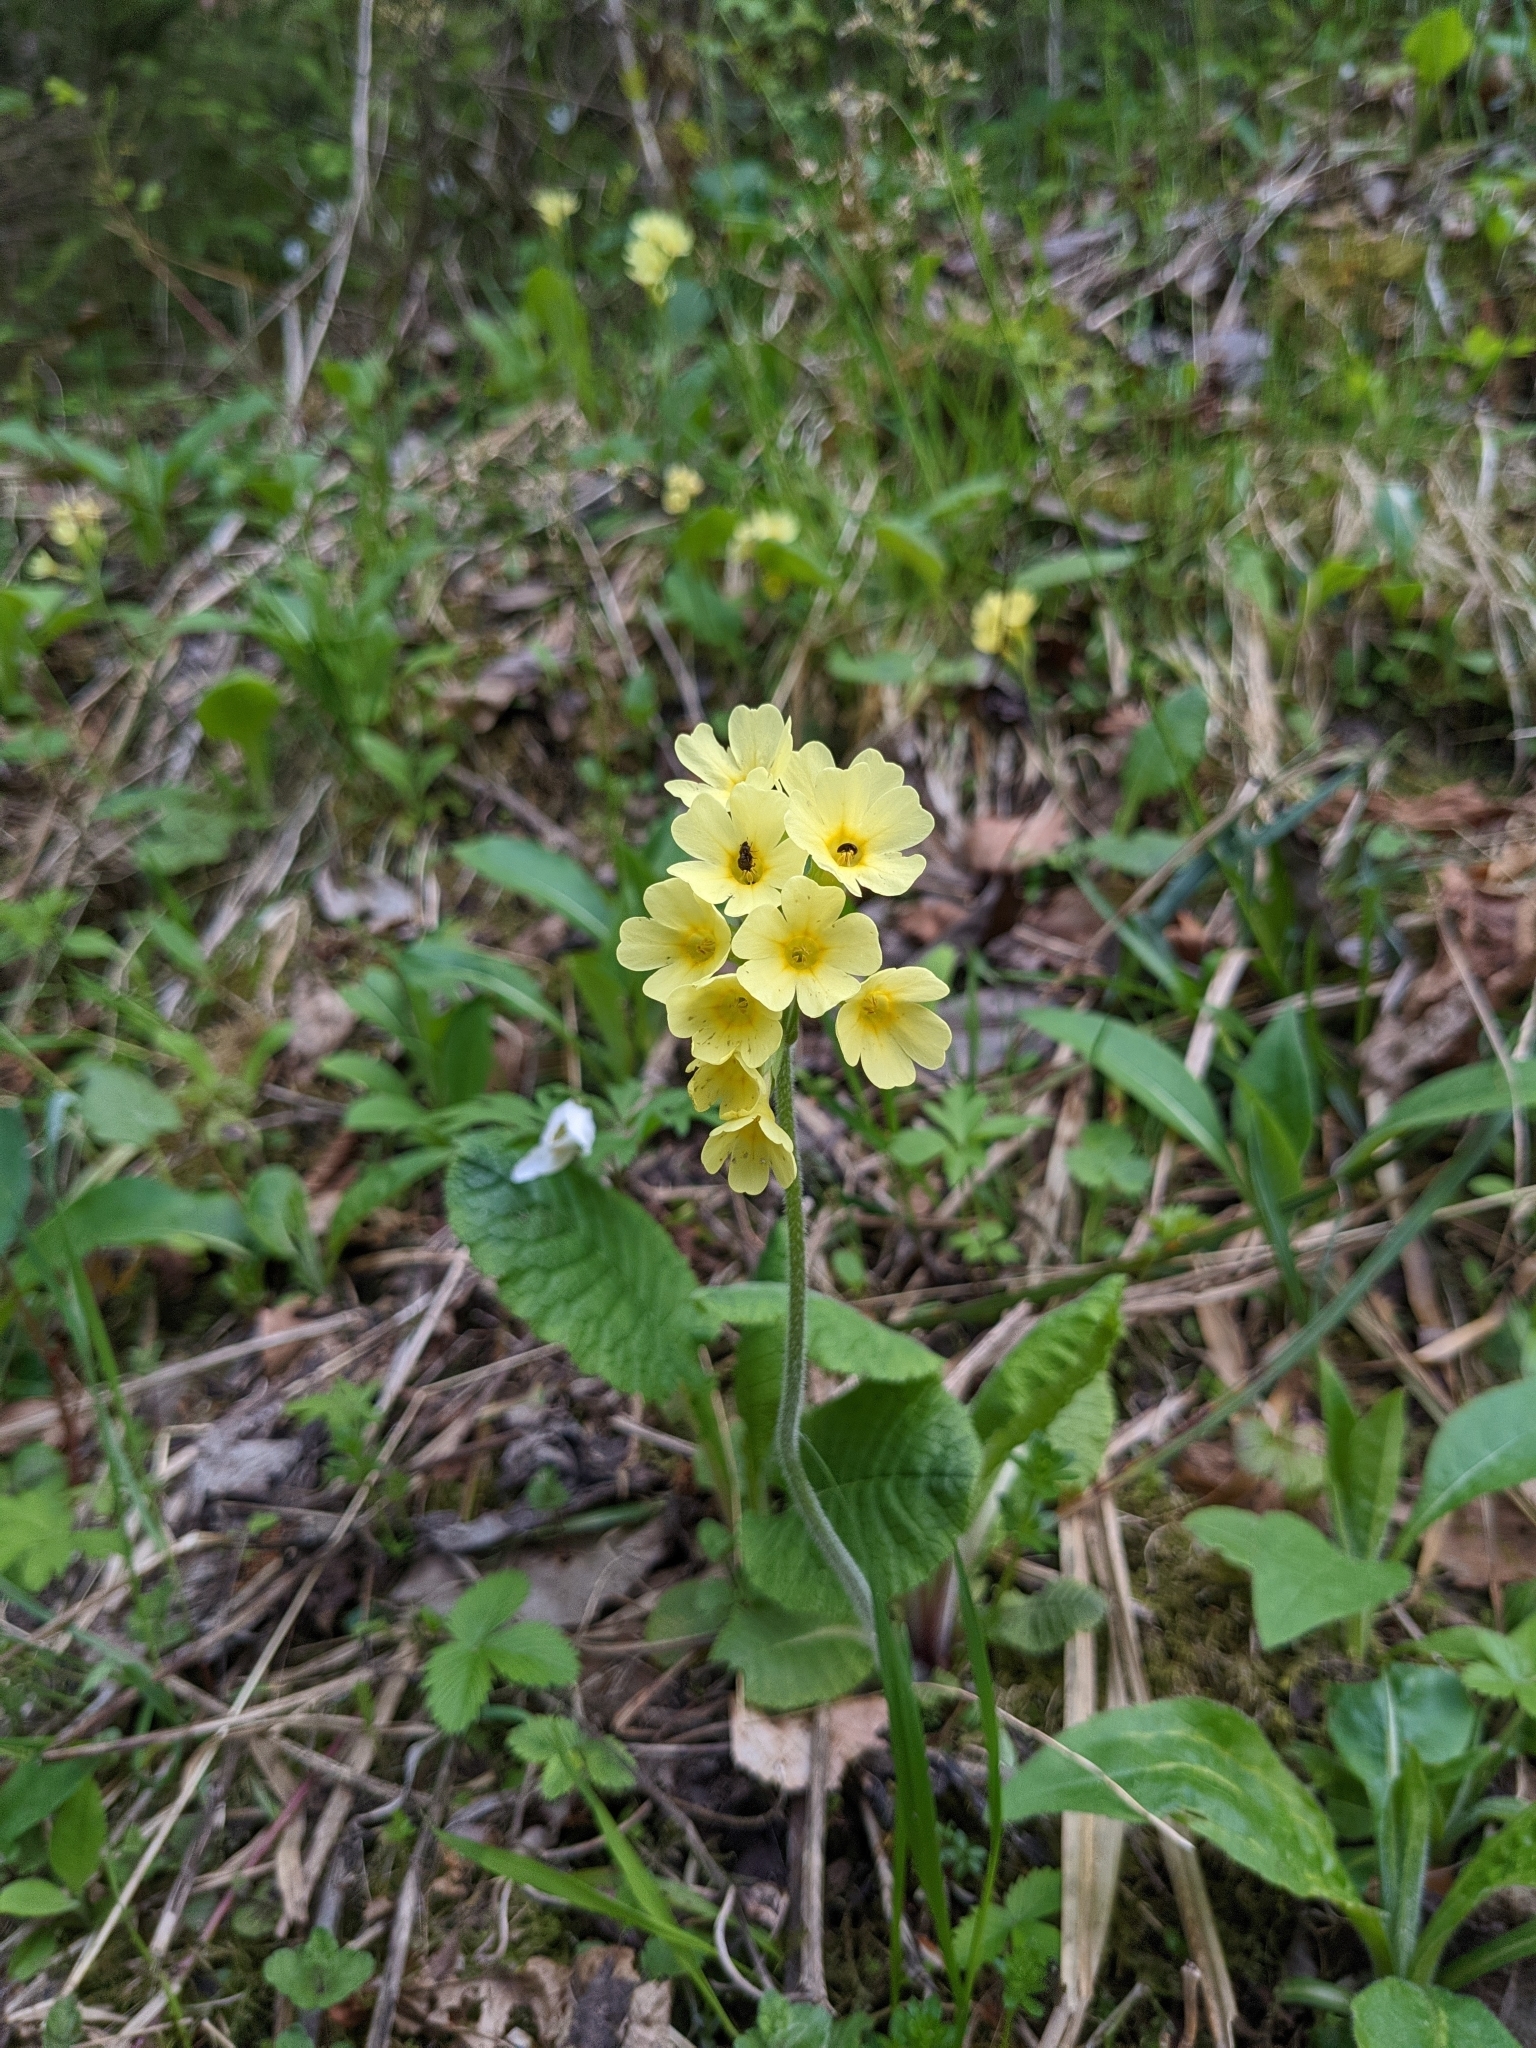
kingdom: Plantae
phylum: Tracheophyta
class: Magnoliopsida
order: Ericales
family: Primulaceae
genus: Primula
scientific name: Primula elatior
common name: Oxlip
